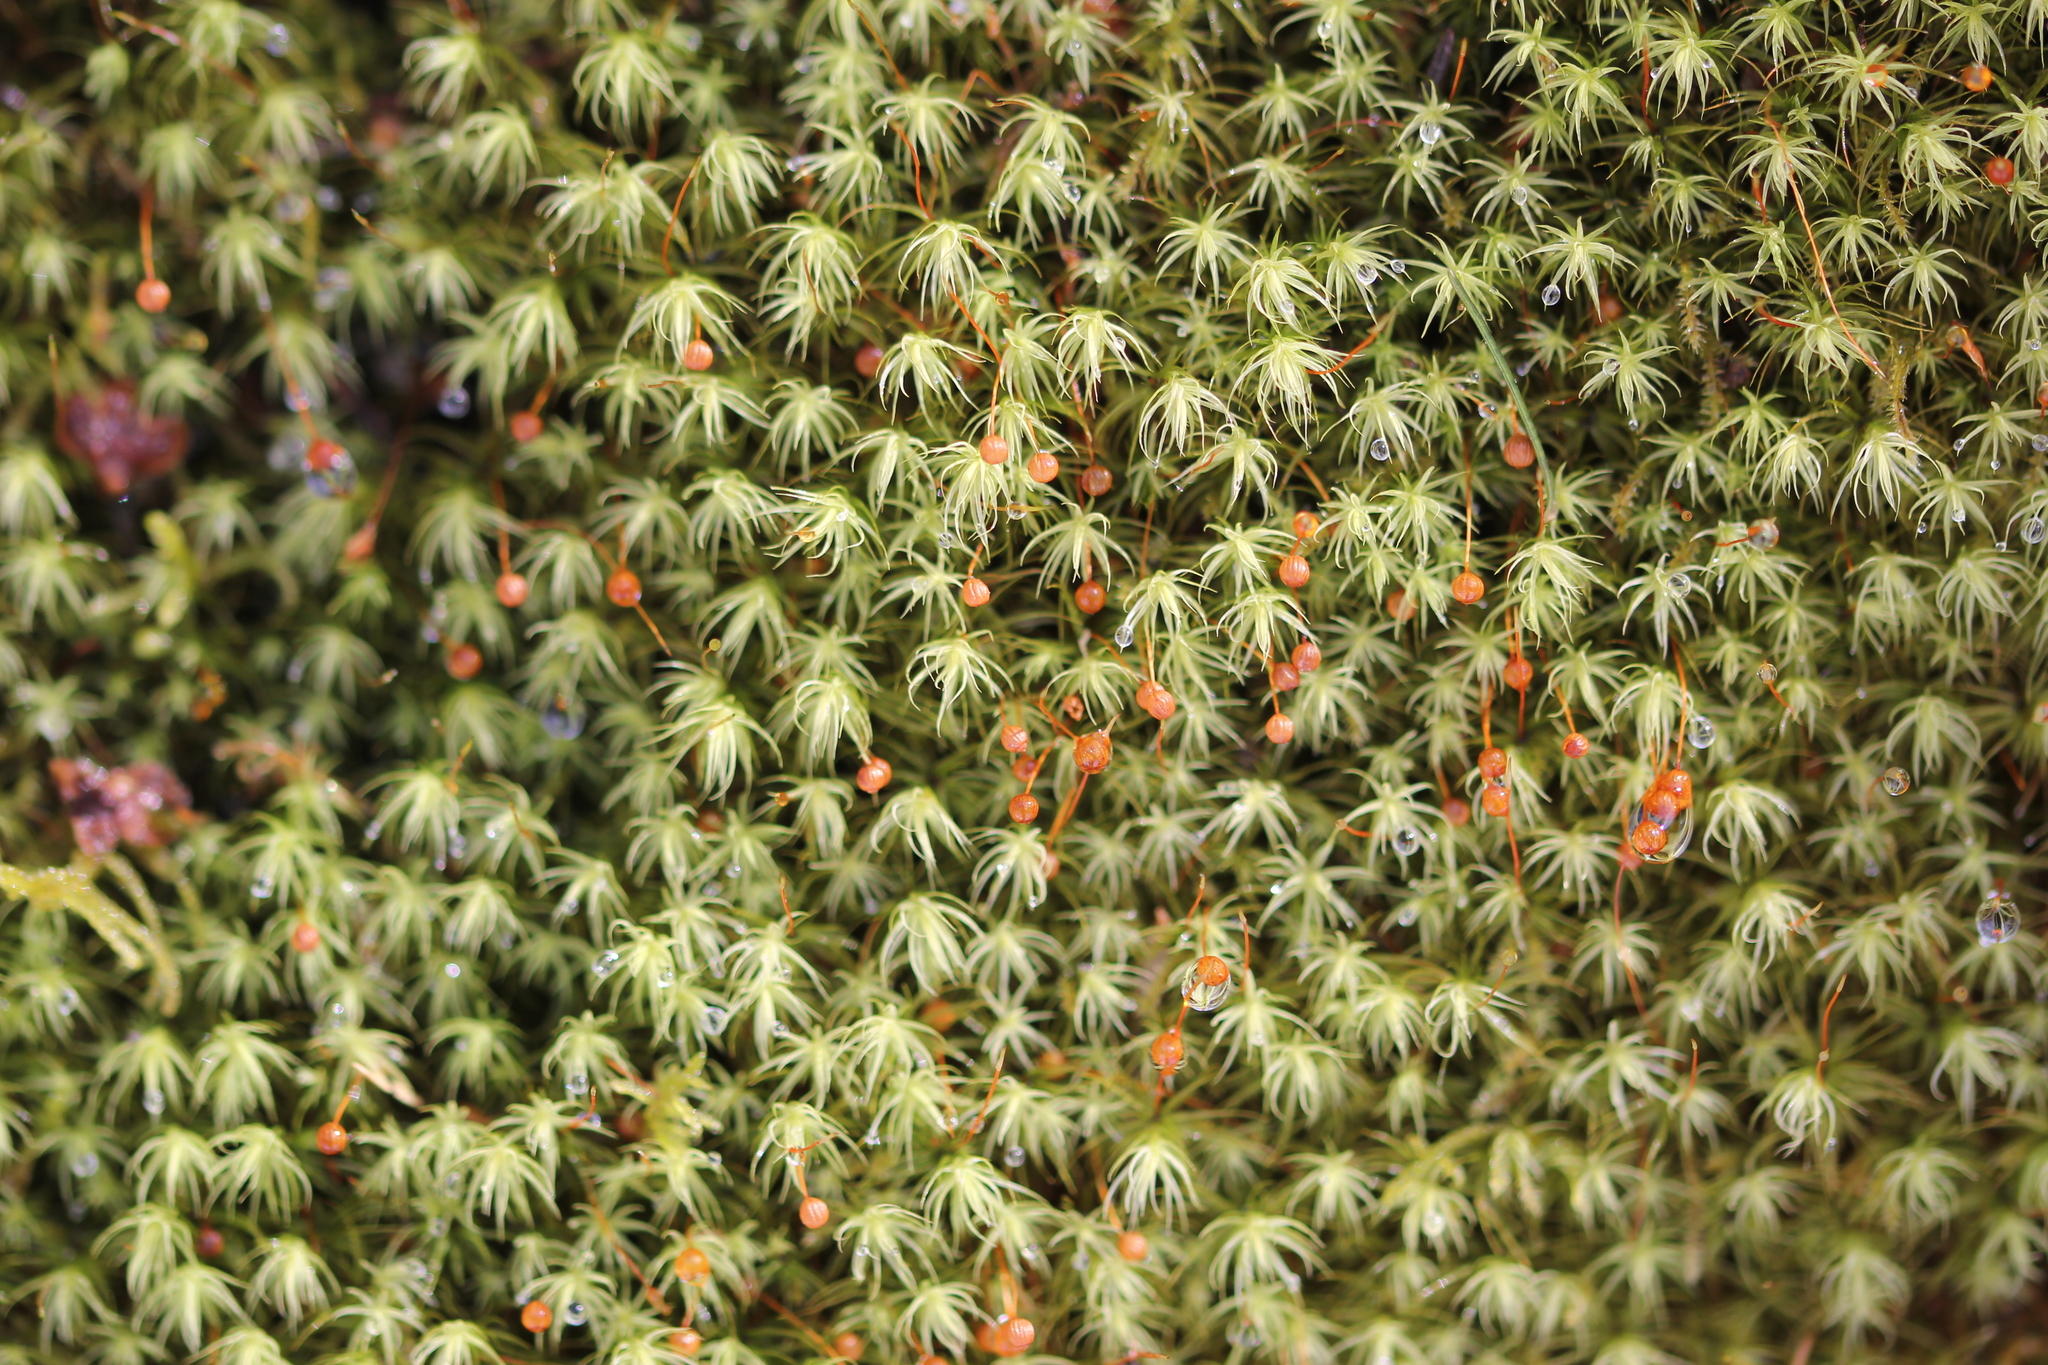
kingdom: Plantae
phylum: Bryophyta
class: Bryopsida
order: Bartramiales
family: Bartramiaceae
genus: Bartramia
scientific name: Bartramia ithyphylla
